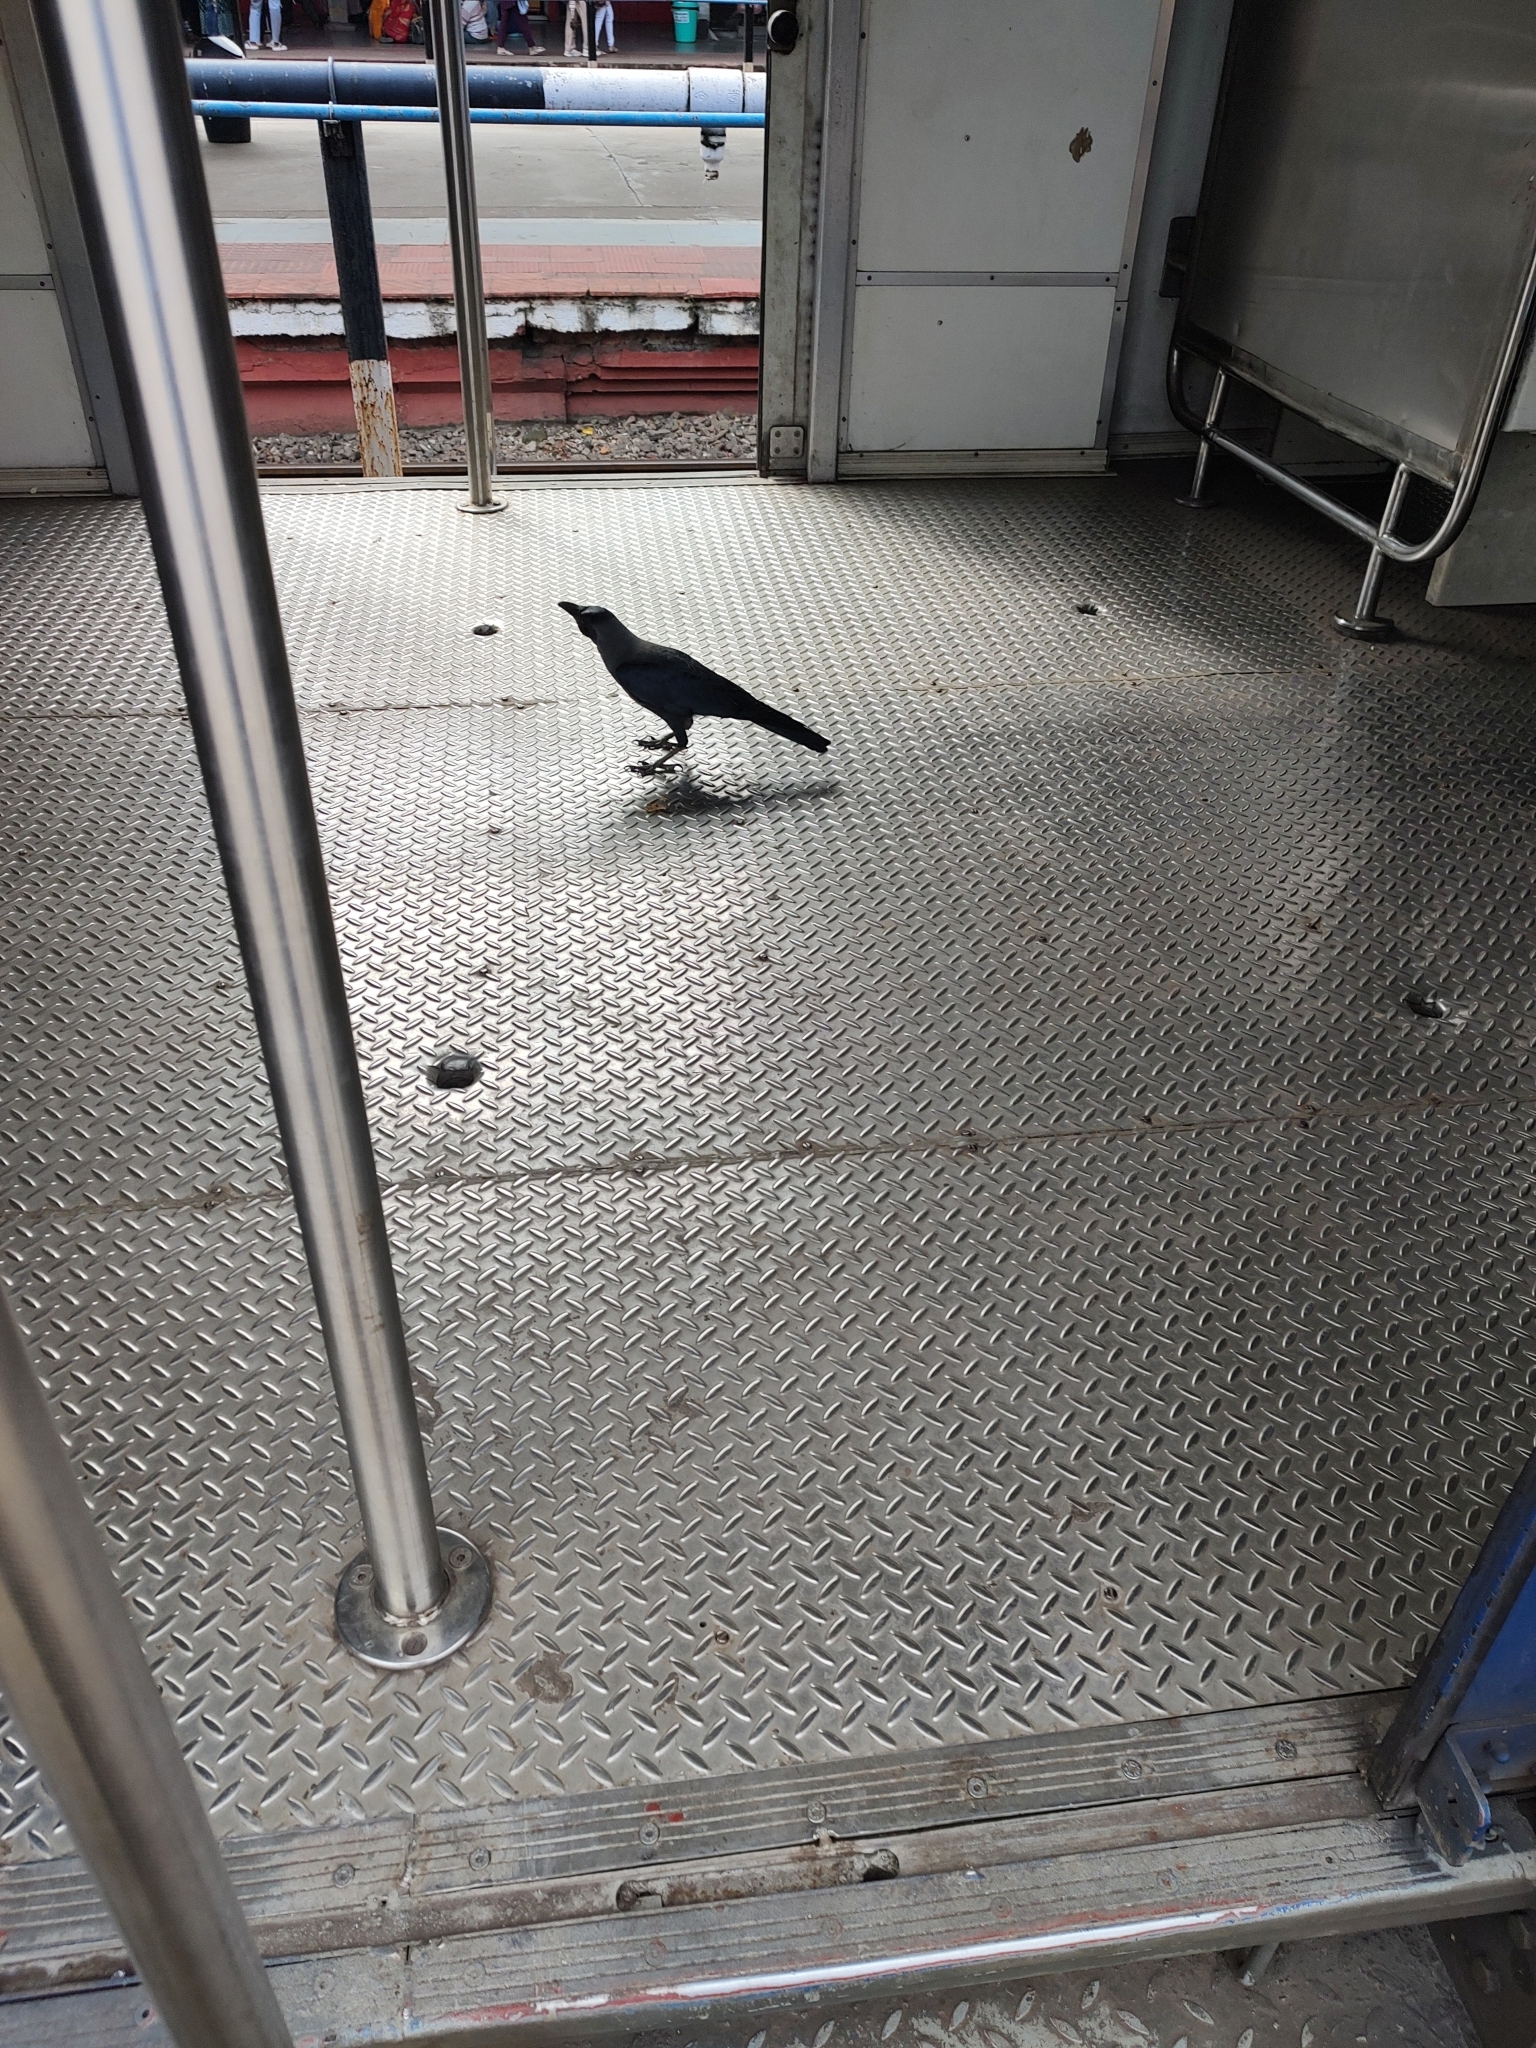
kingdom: Animalia
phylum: Chordata
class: Aves
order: Passeriformes
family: Corvidae
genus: Corvus
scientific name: Corvus splendens
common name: House crow
